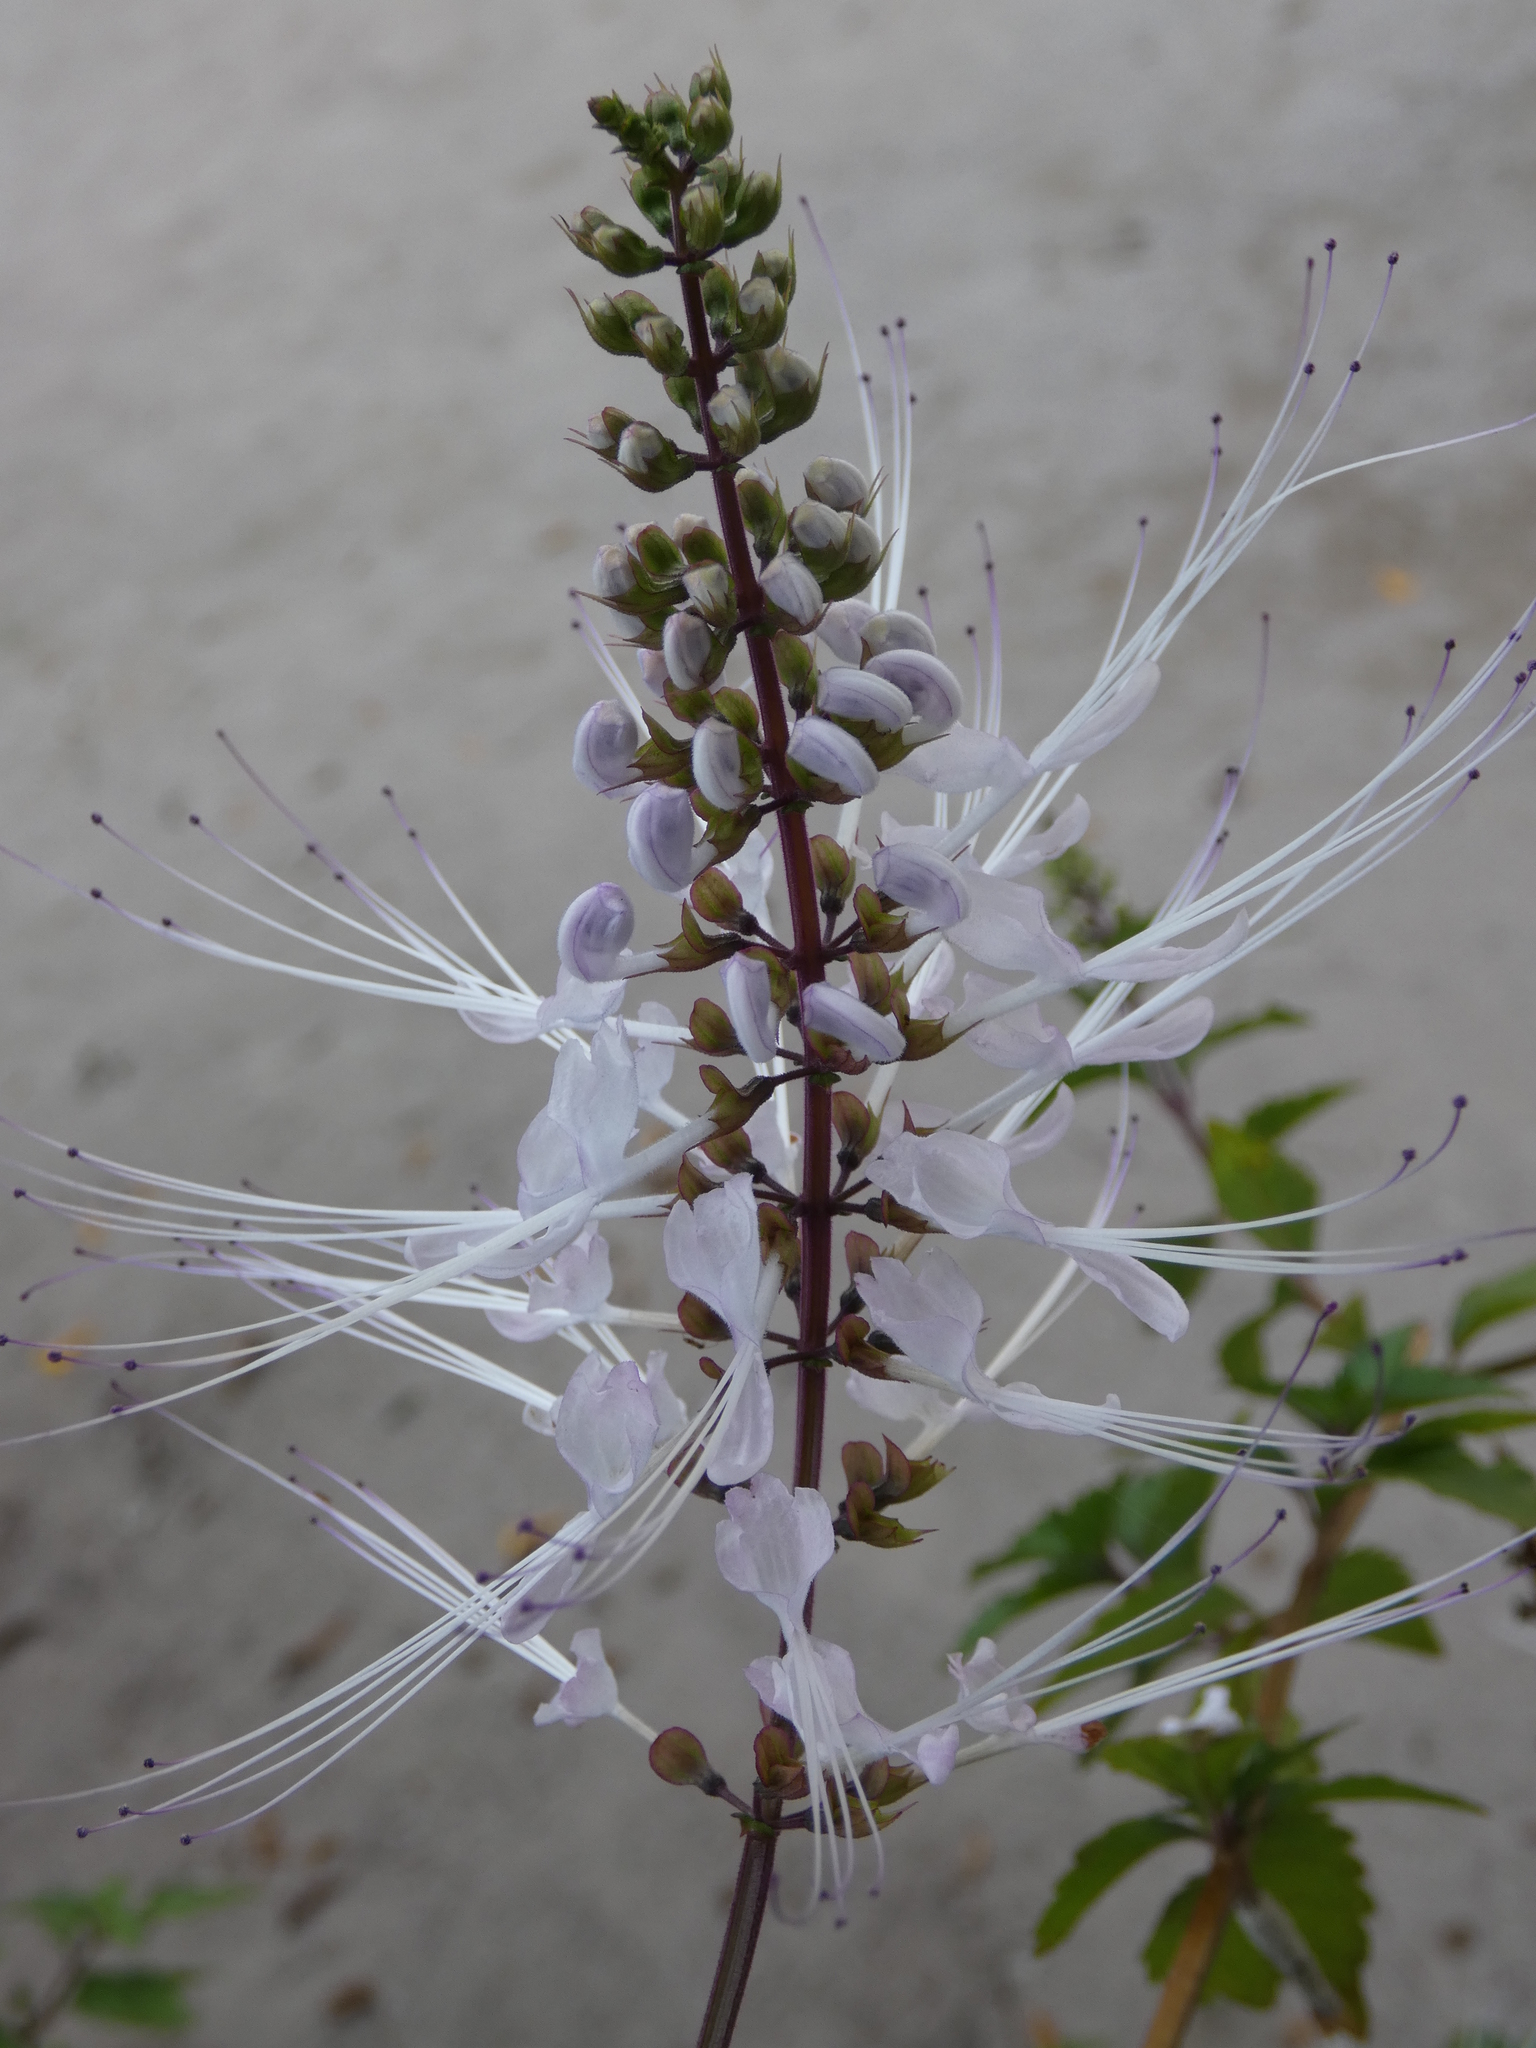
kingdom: Plantae
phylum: Tracheophyta
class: Magnoliopsida
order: Lamiales
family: Lamiaceae
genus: Orthosiphon
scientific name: Orthosiphon aristatus
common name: Whiskerplant
